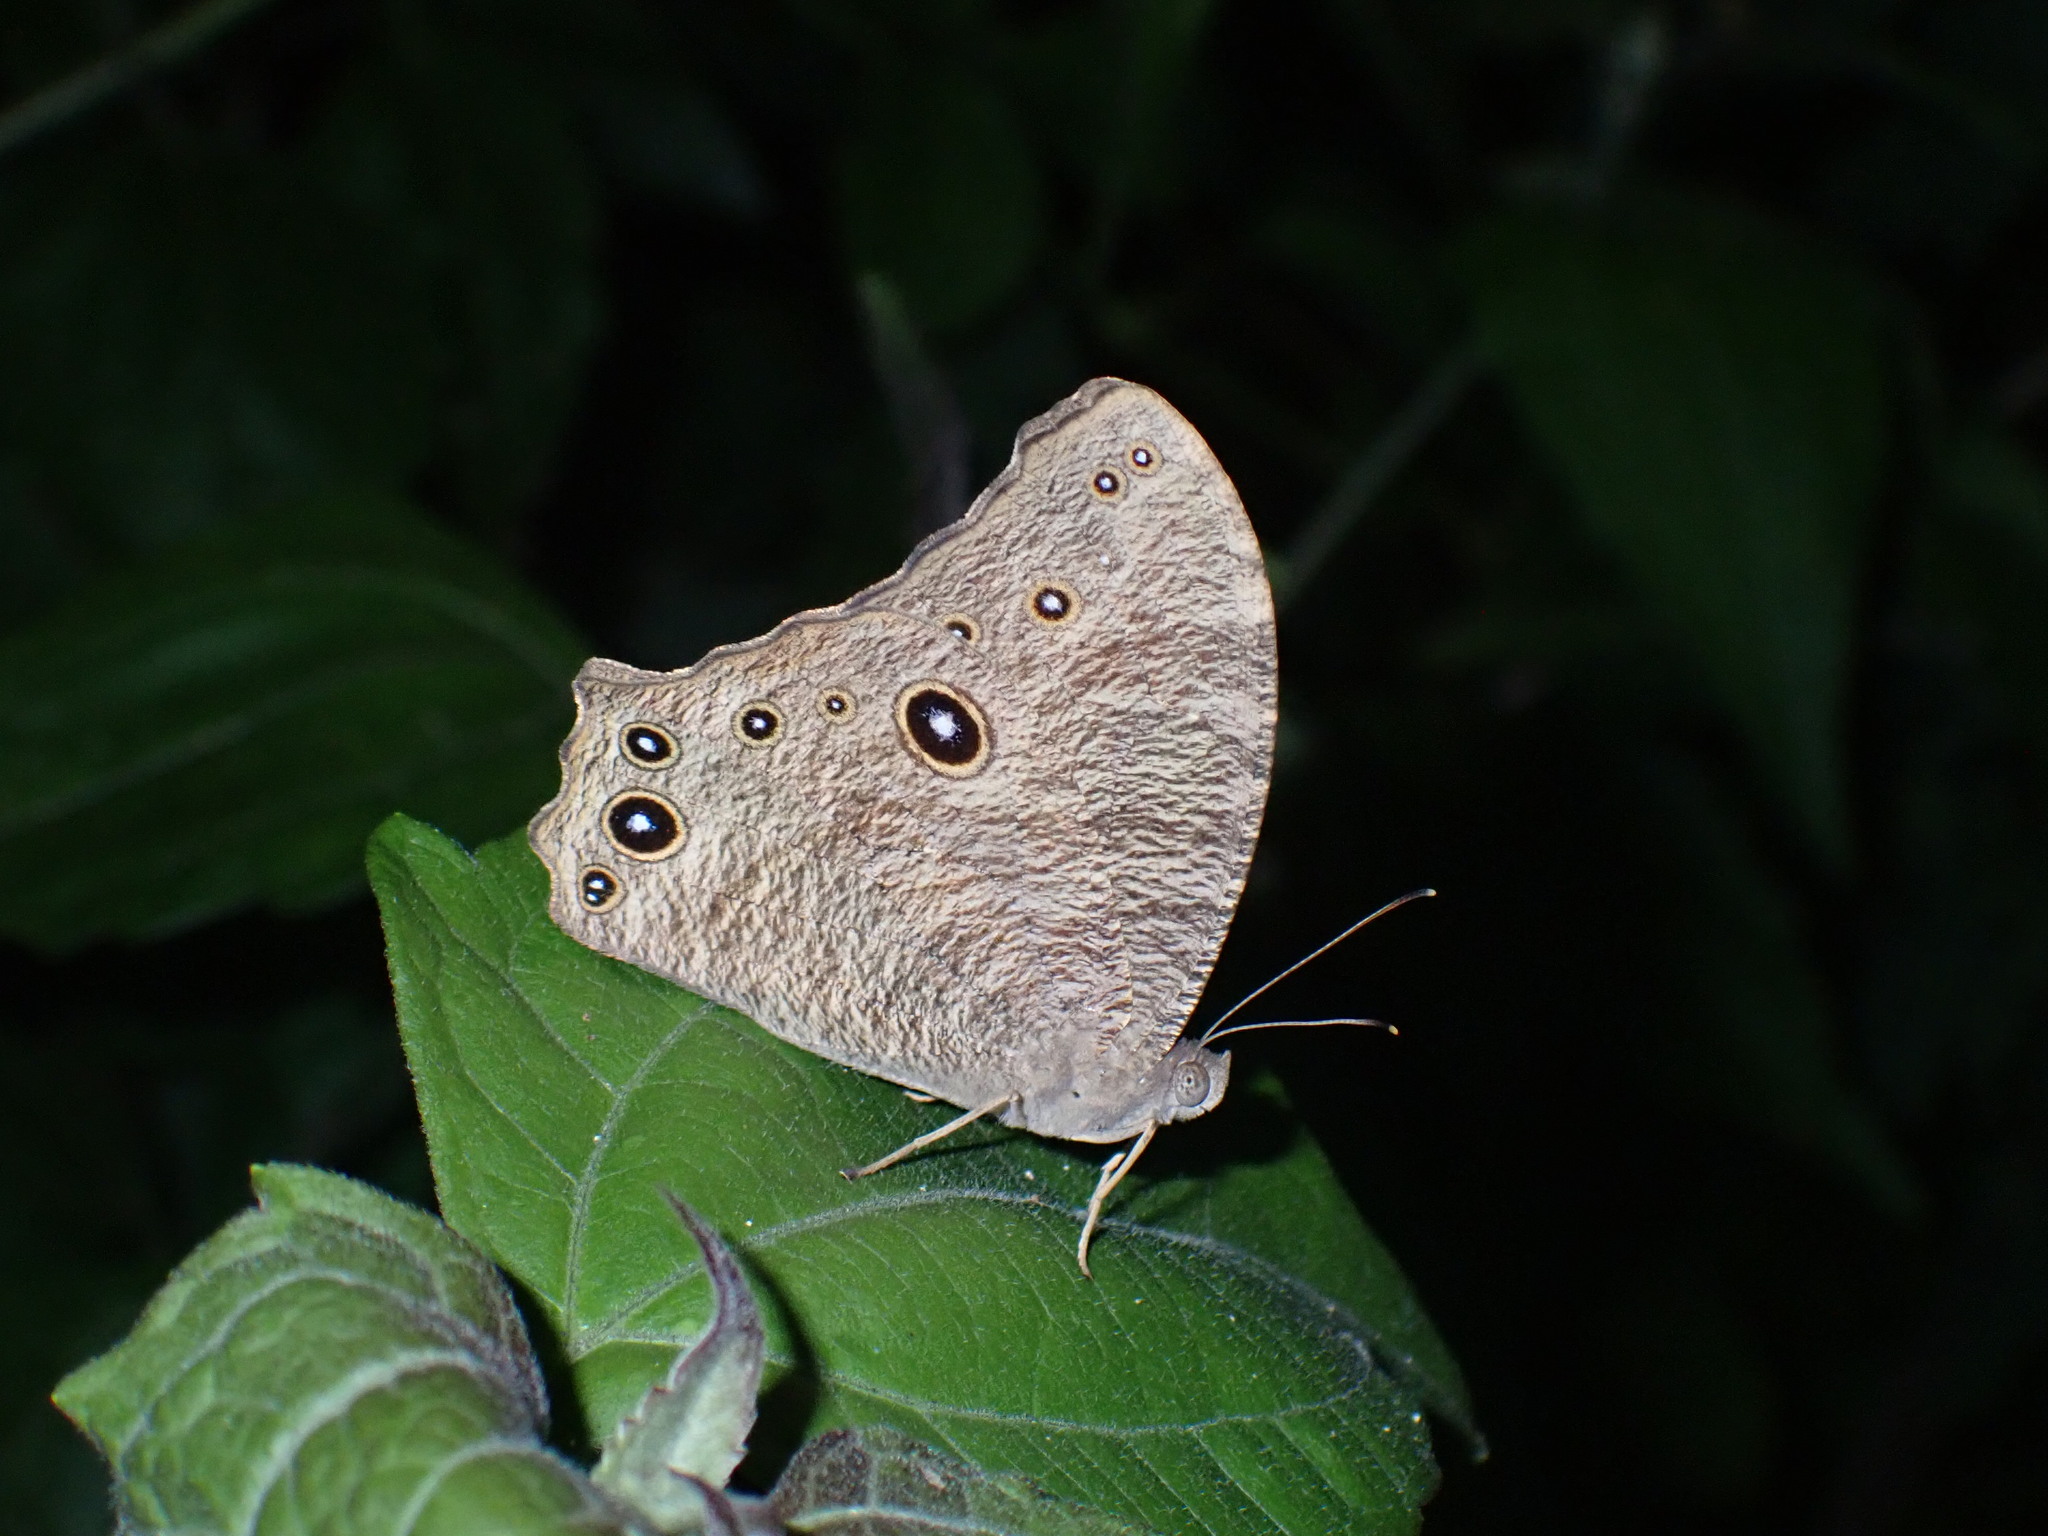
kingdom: Animalia
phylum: Arthropoda
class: Insecta
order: Lepidoptera
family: Nymphalidae
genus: Melanitis
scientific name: Melanitis leda
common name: Twilight brown
